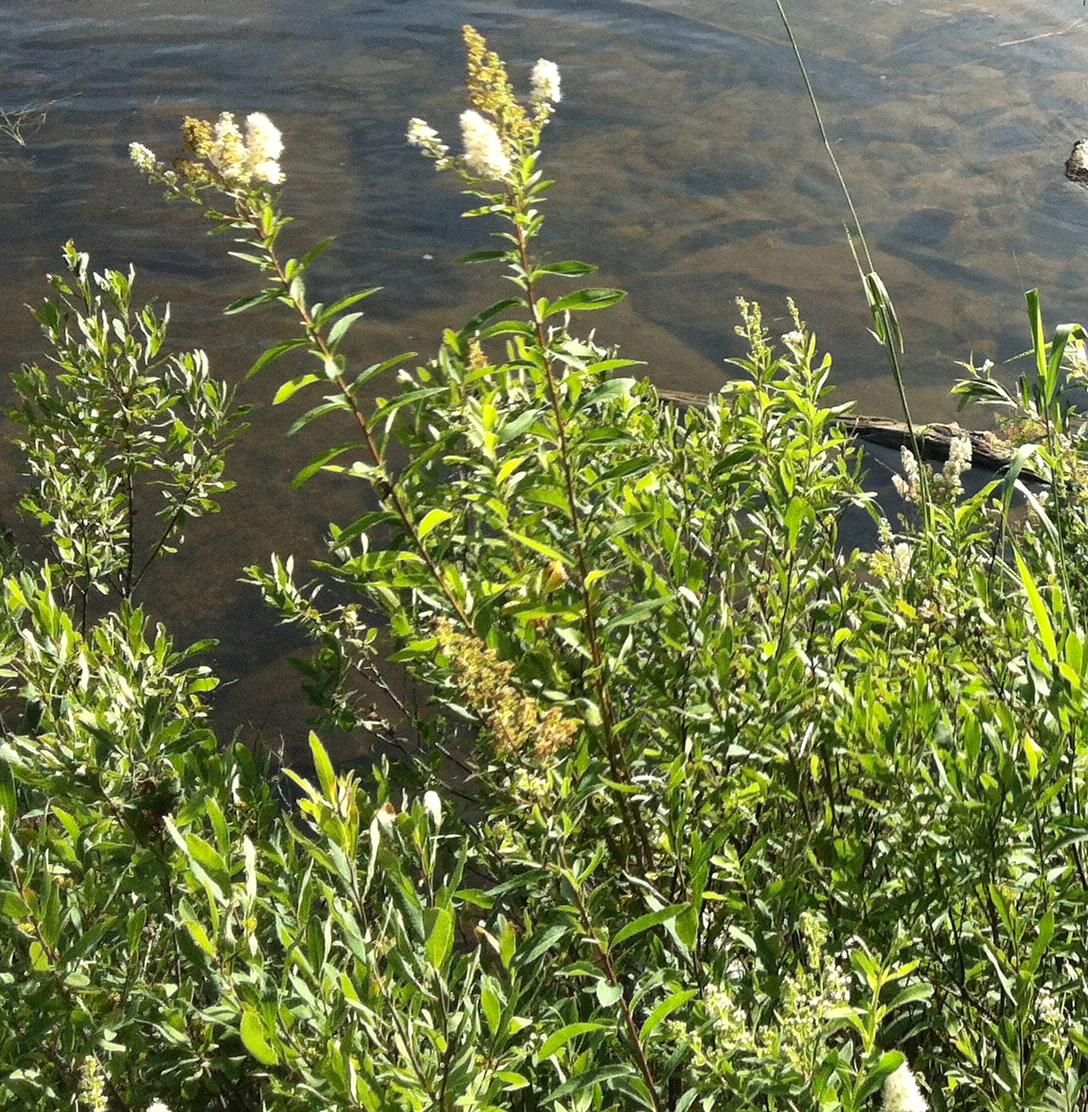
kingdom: Plantae
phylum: Tracheophyta
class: Magnoliopsida
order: Rosales
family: Rosaceae
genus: Spiraea
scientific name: Spiraea alba
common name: Pale bridewort
